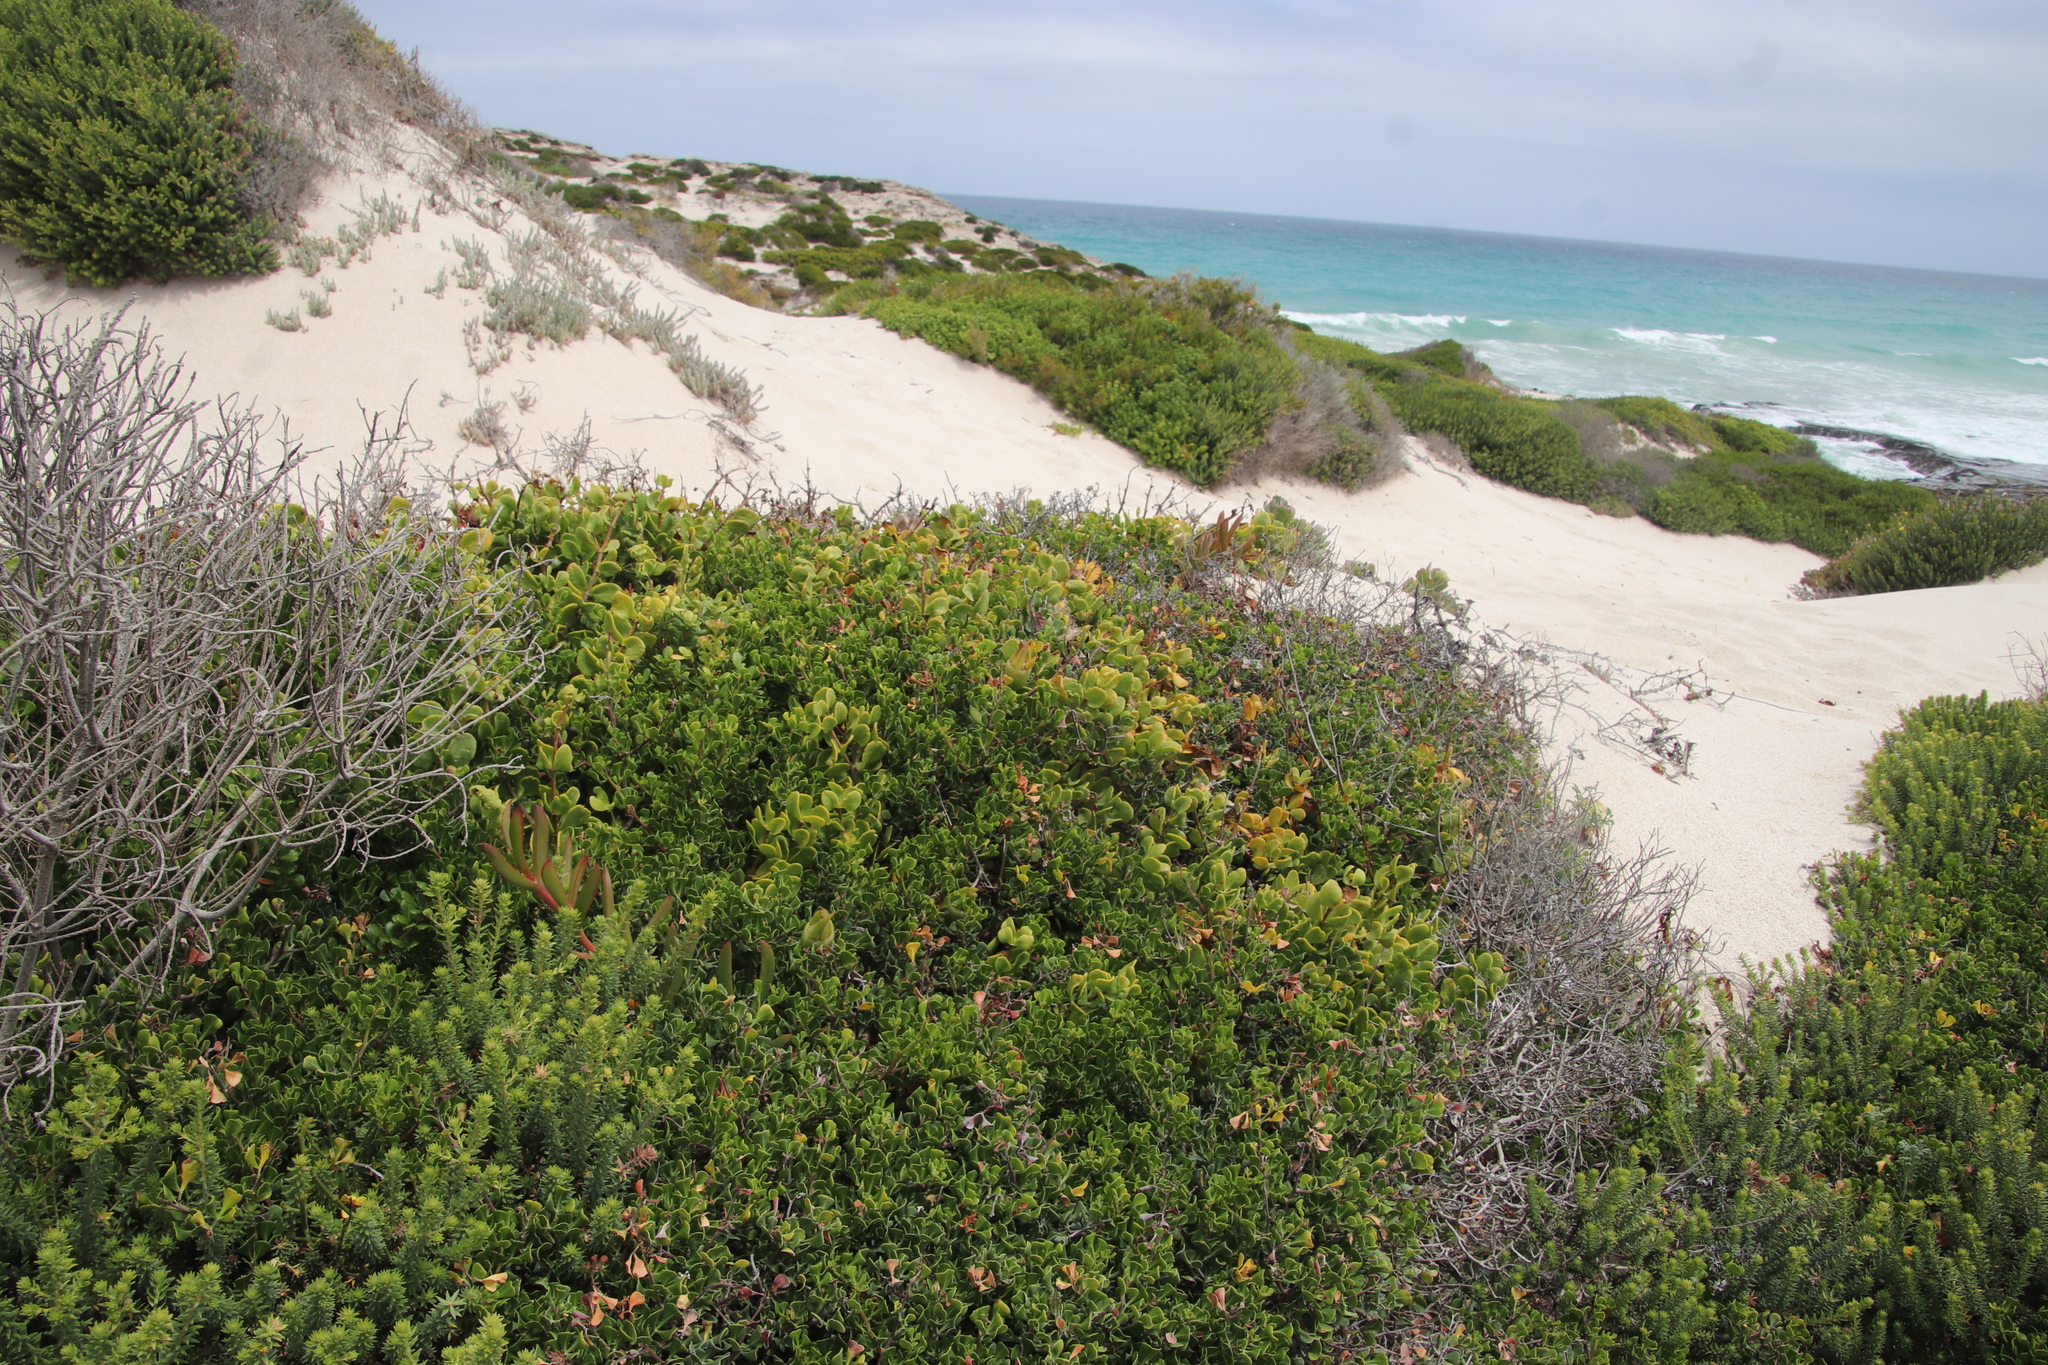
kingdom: Plantae
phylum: Tracheophyta
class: Magnoliopsida
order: Zygophyllales
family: Zygophyllaceae
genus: Roepera
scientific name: Roepera morgsana
